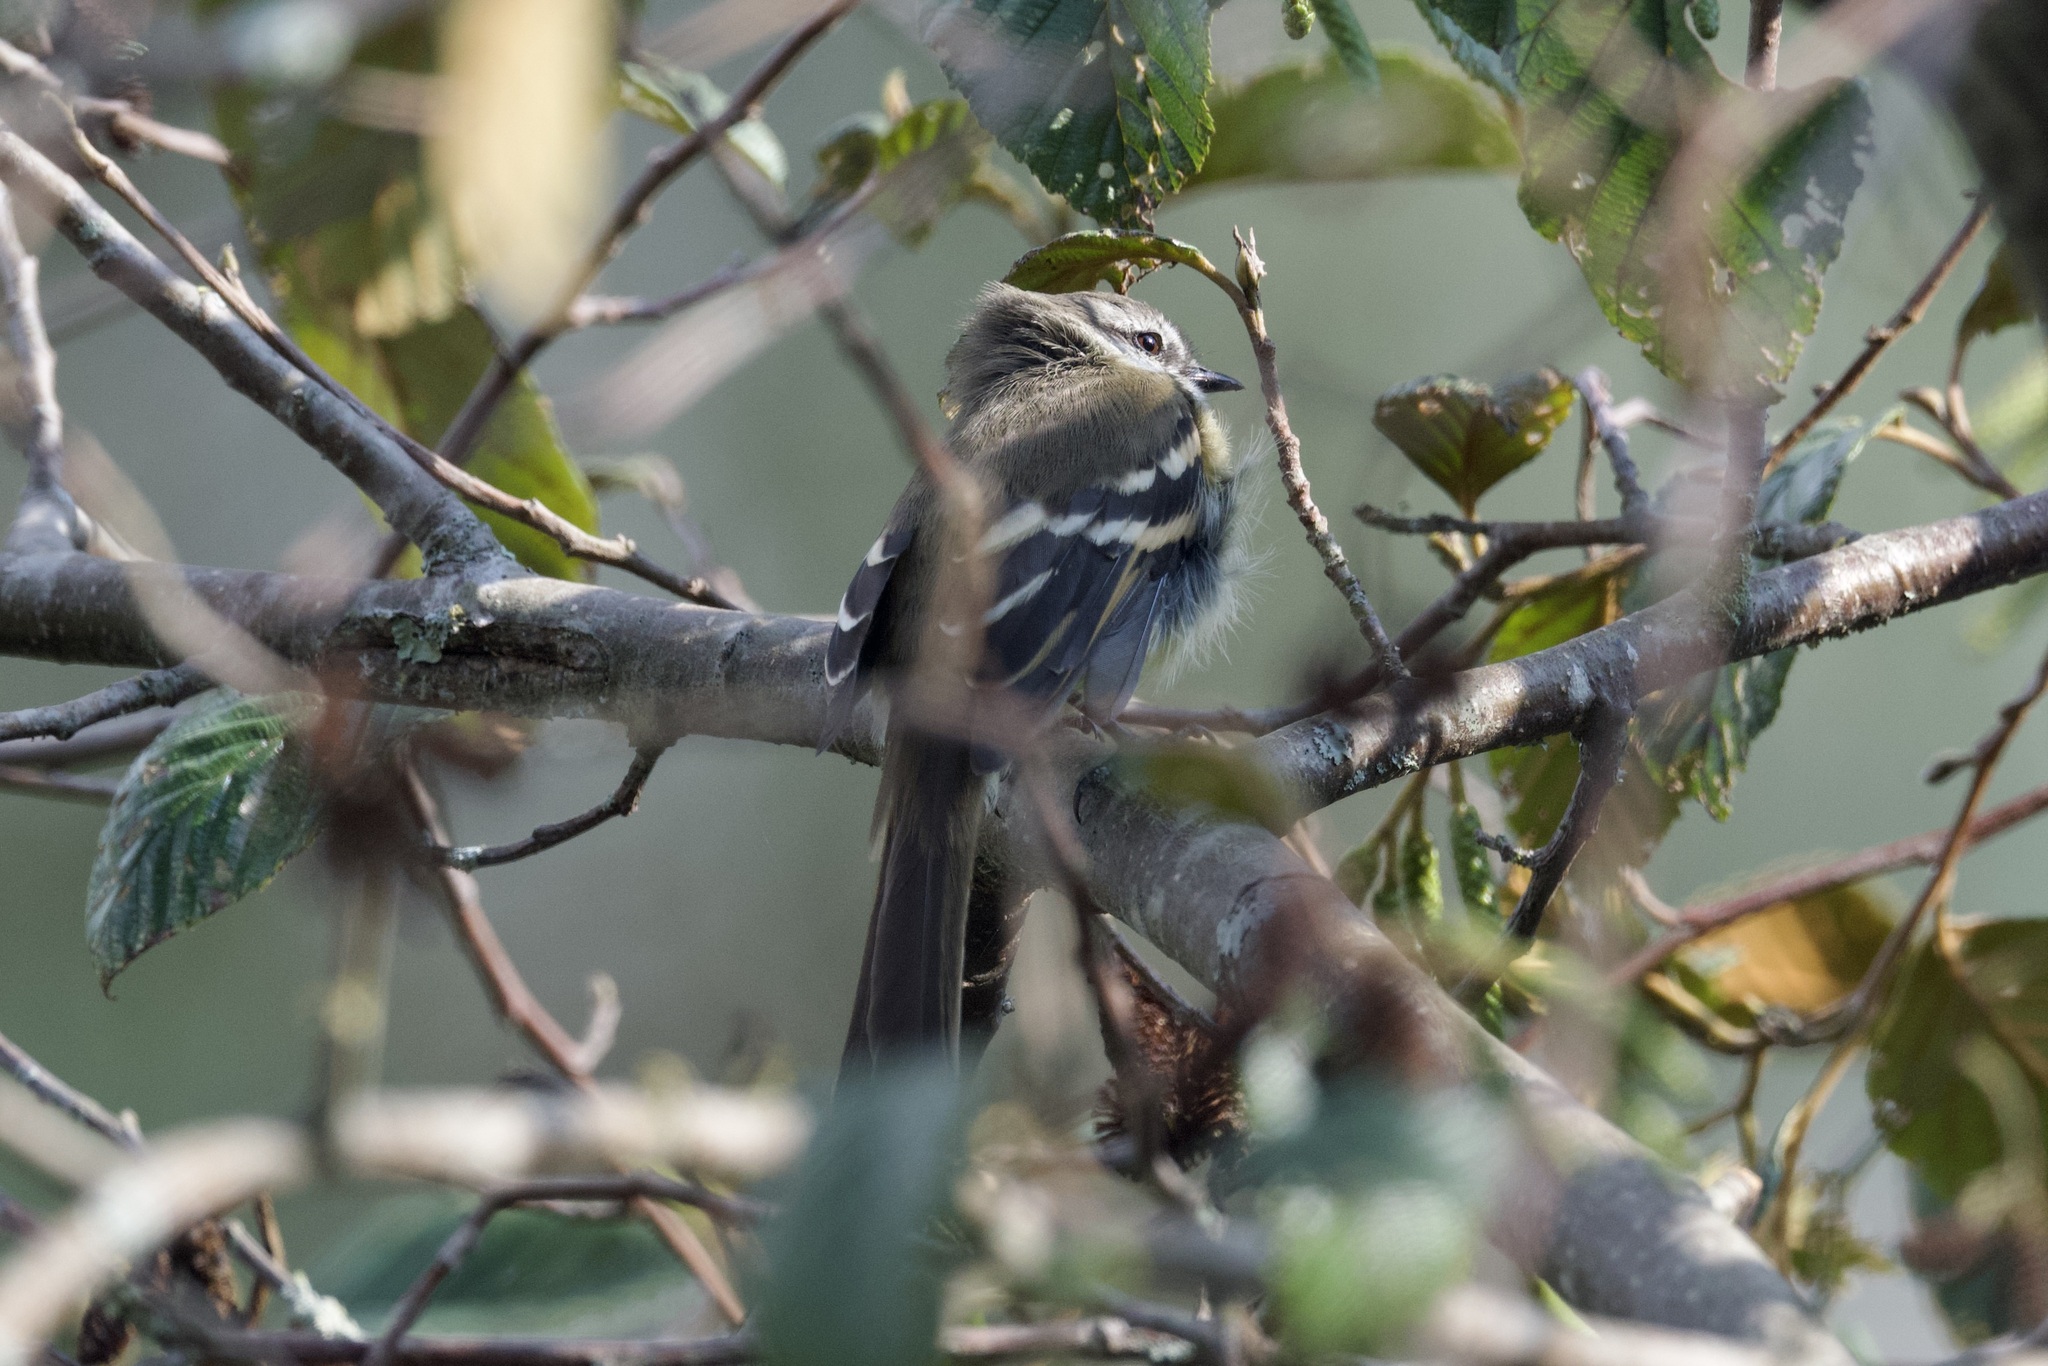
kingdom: Animalia
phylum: Chordata
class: Aves
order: Passeriformes
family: Tyrannidae
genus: Mecocerculus
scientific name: Mecocerculus leucophrys
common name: White-throated tyrannulet
